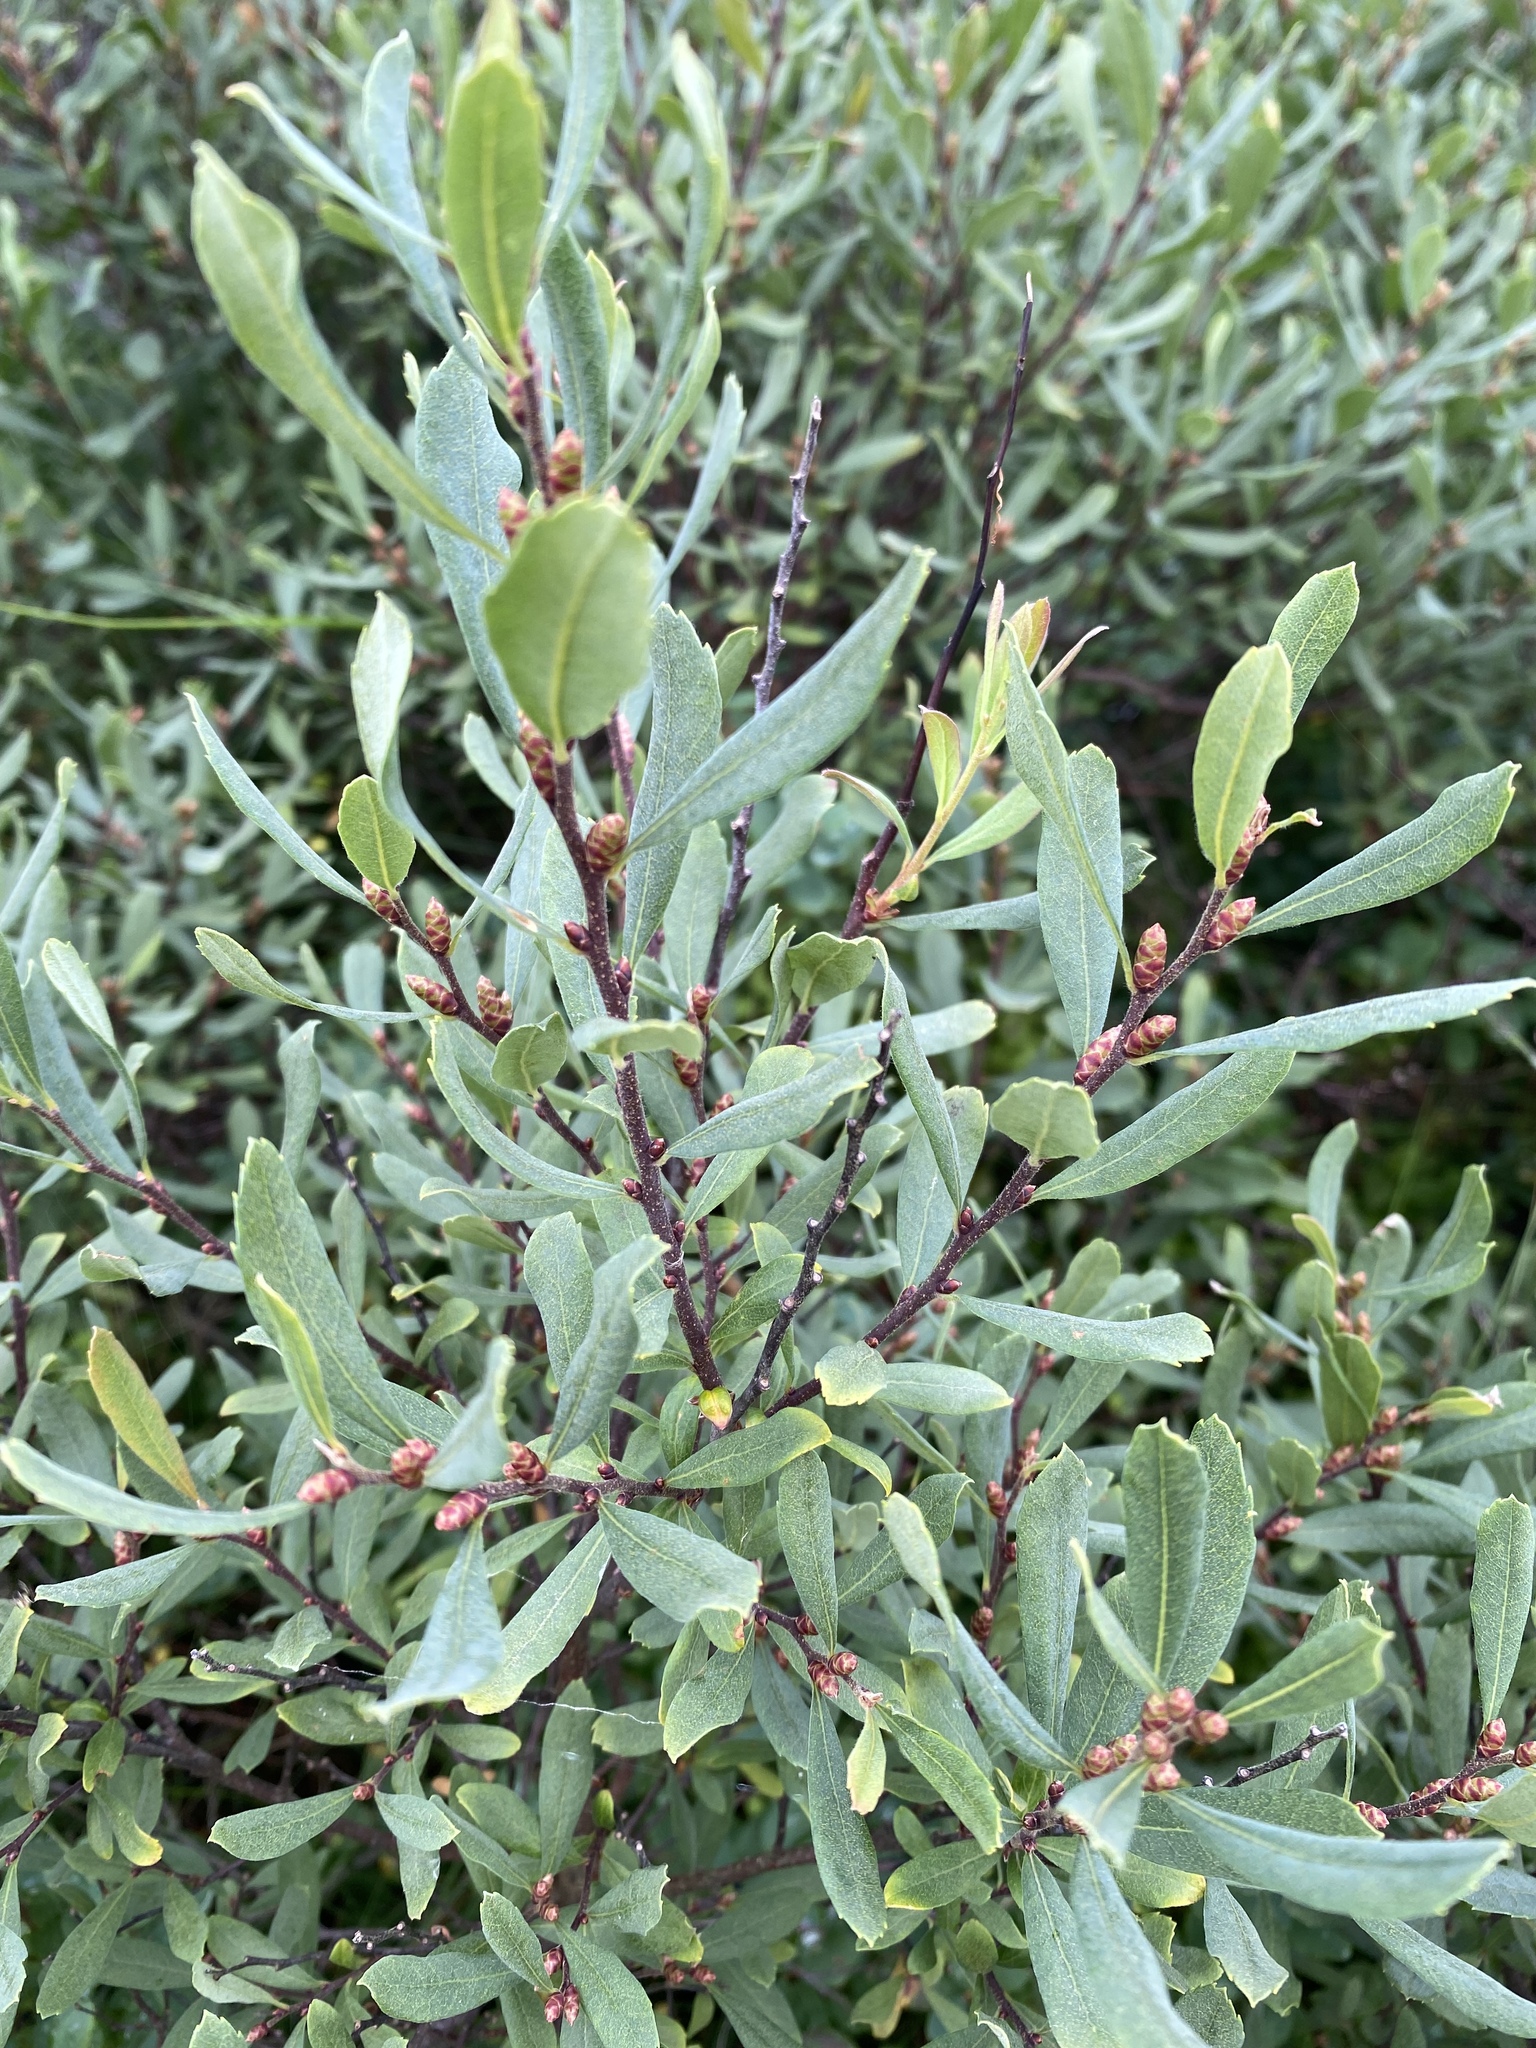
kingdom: Plantae
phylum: Tracheophyta
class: Magnoliopsida
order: Fagales
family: Myricaceae
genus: Myrica
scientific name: Myrica gale
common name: Sweet gale
